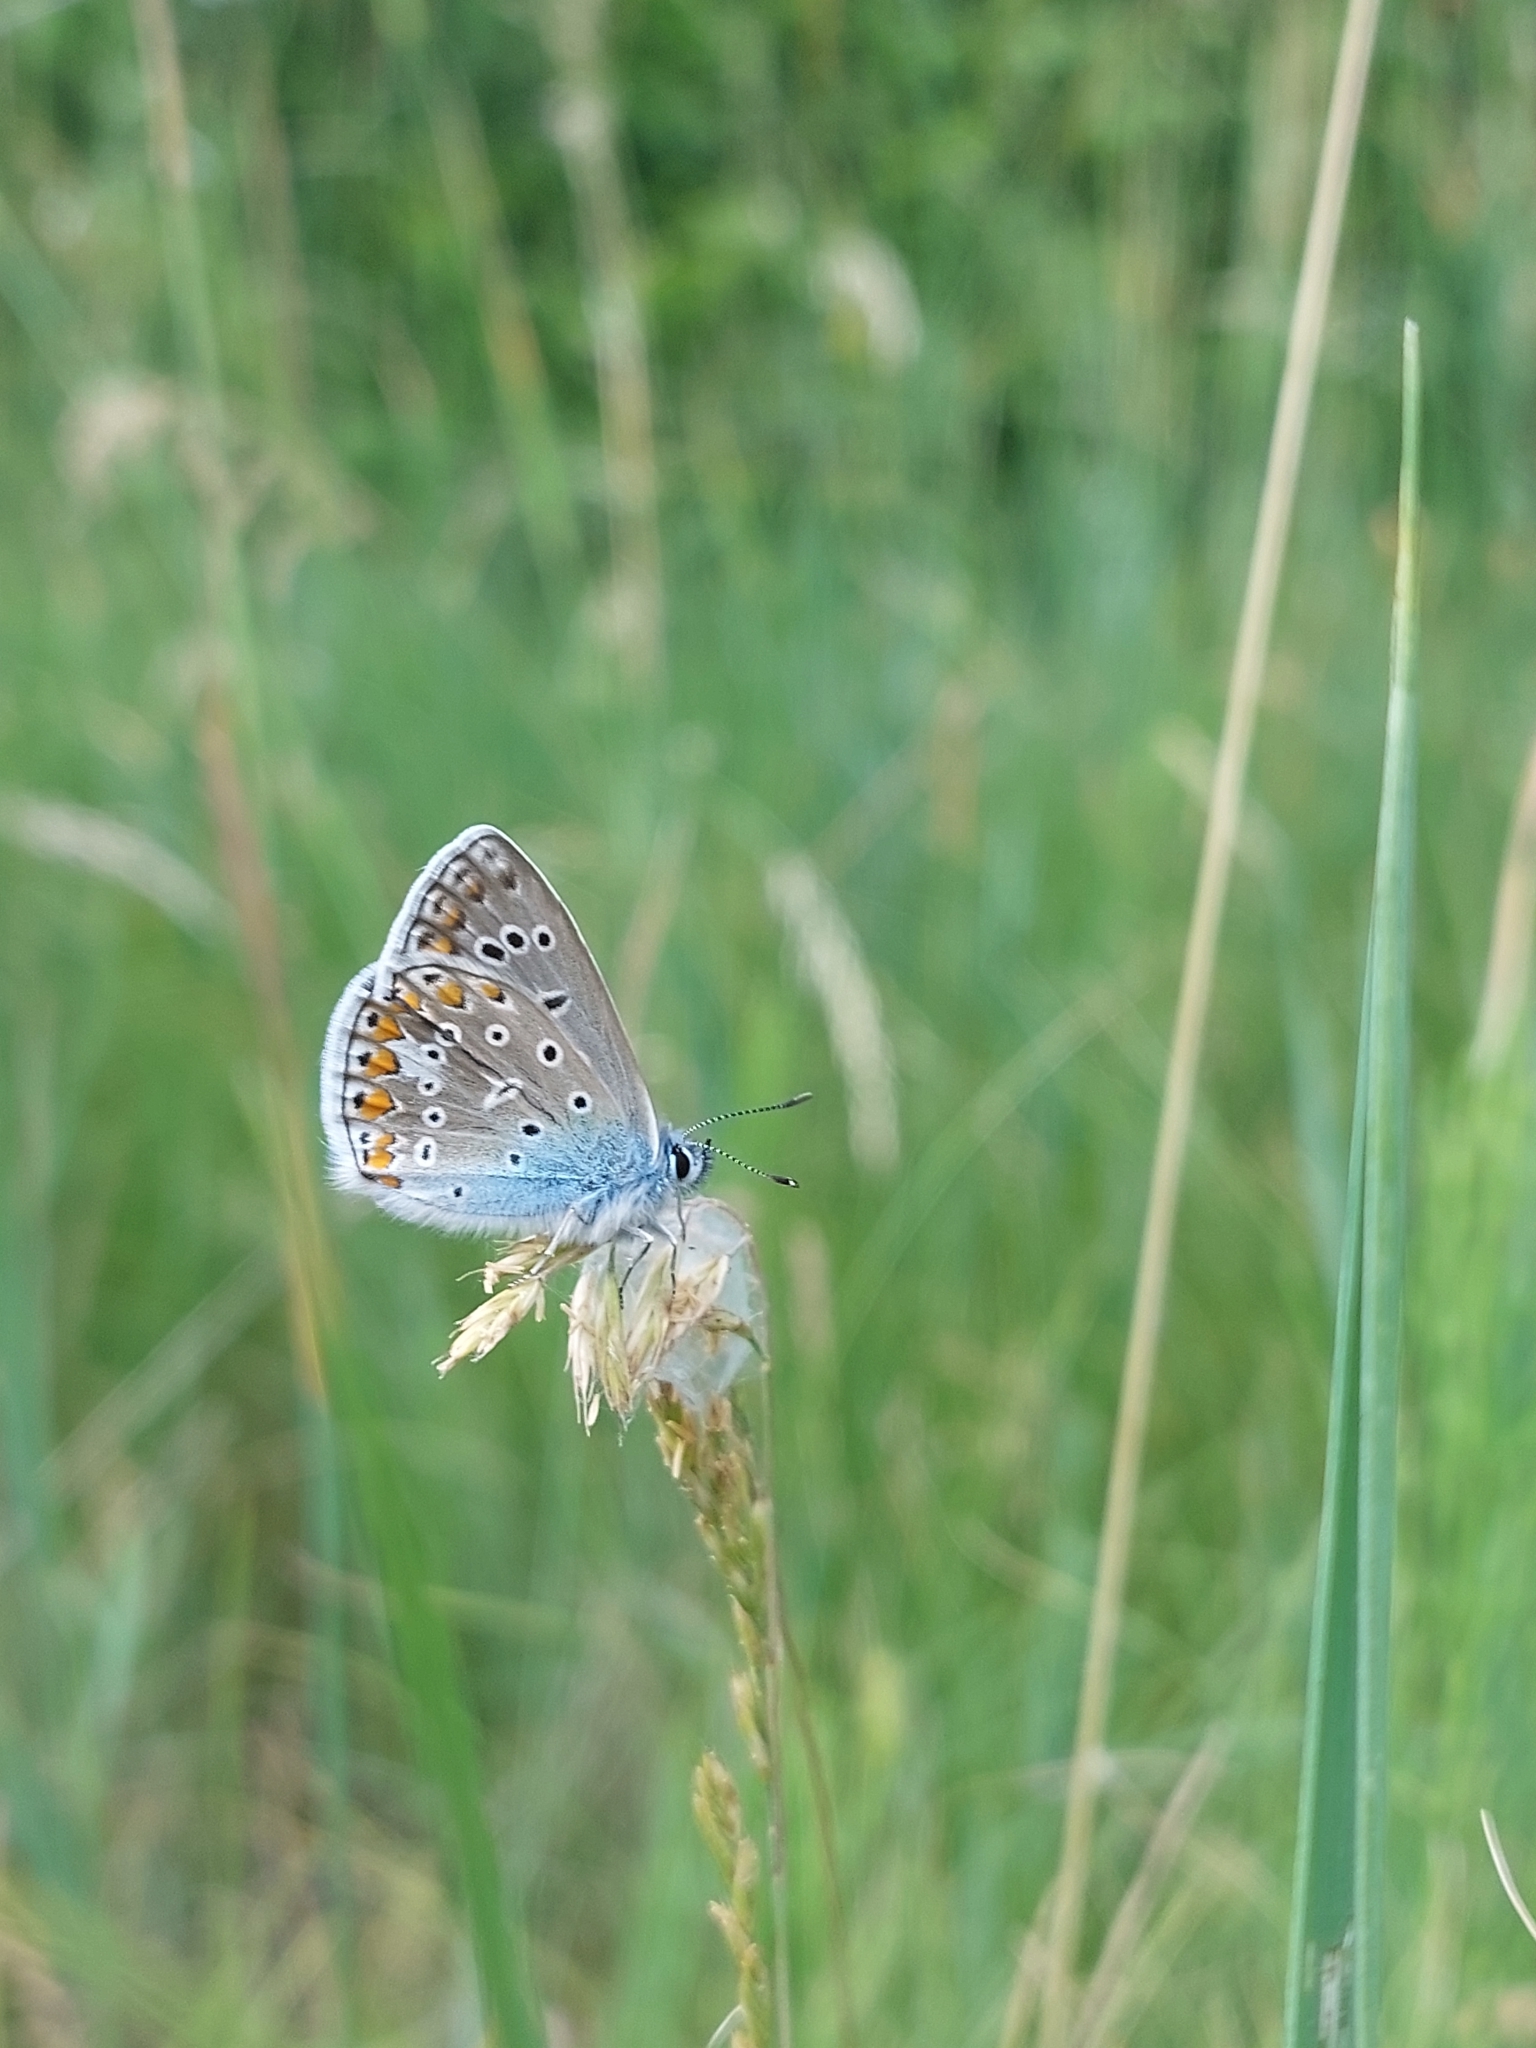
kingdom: Animalia
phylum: Arthropoda
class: Insecta
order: Lepidoptera
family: Lycaenidae
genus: Polyommatus
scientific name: Polyommatus icarus
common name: Common blue
